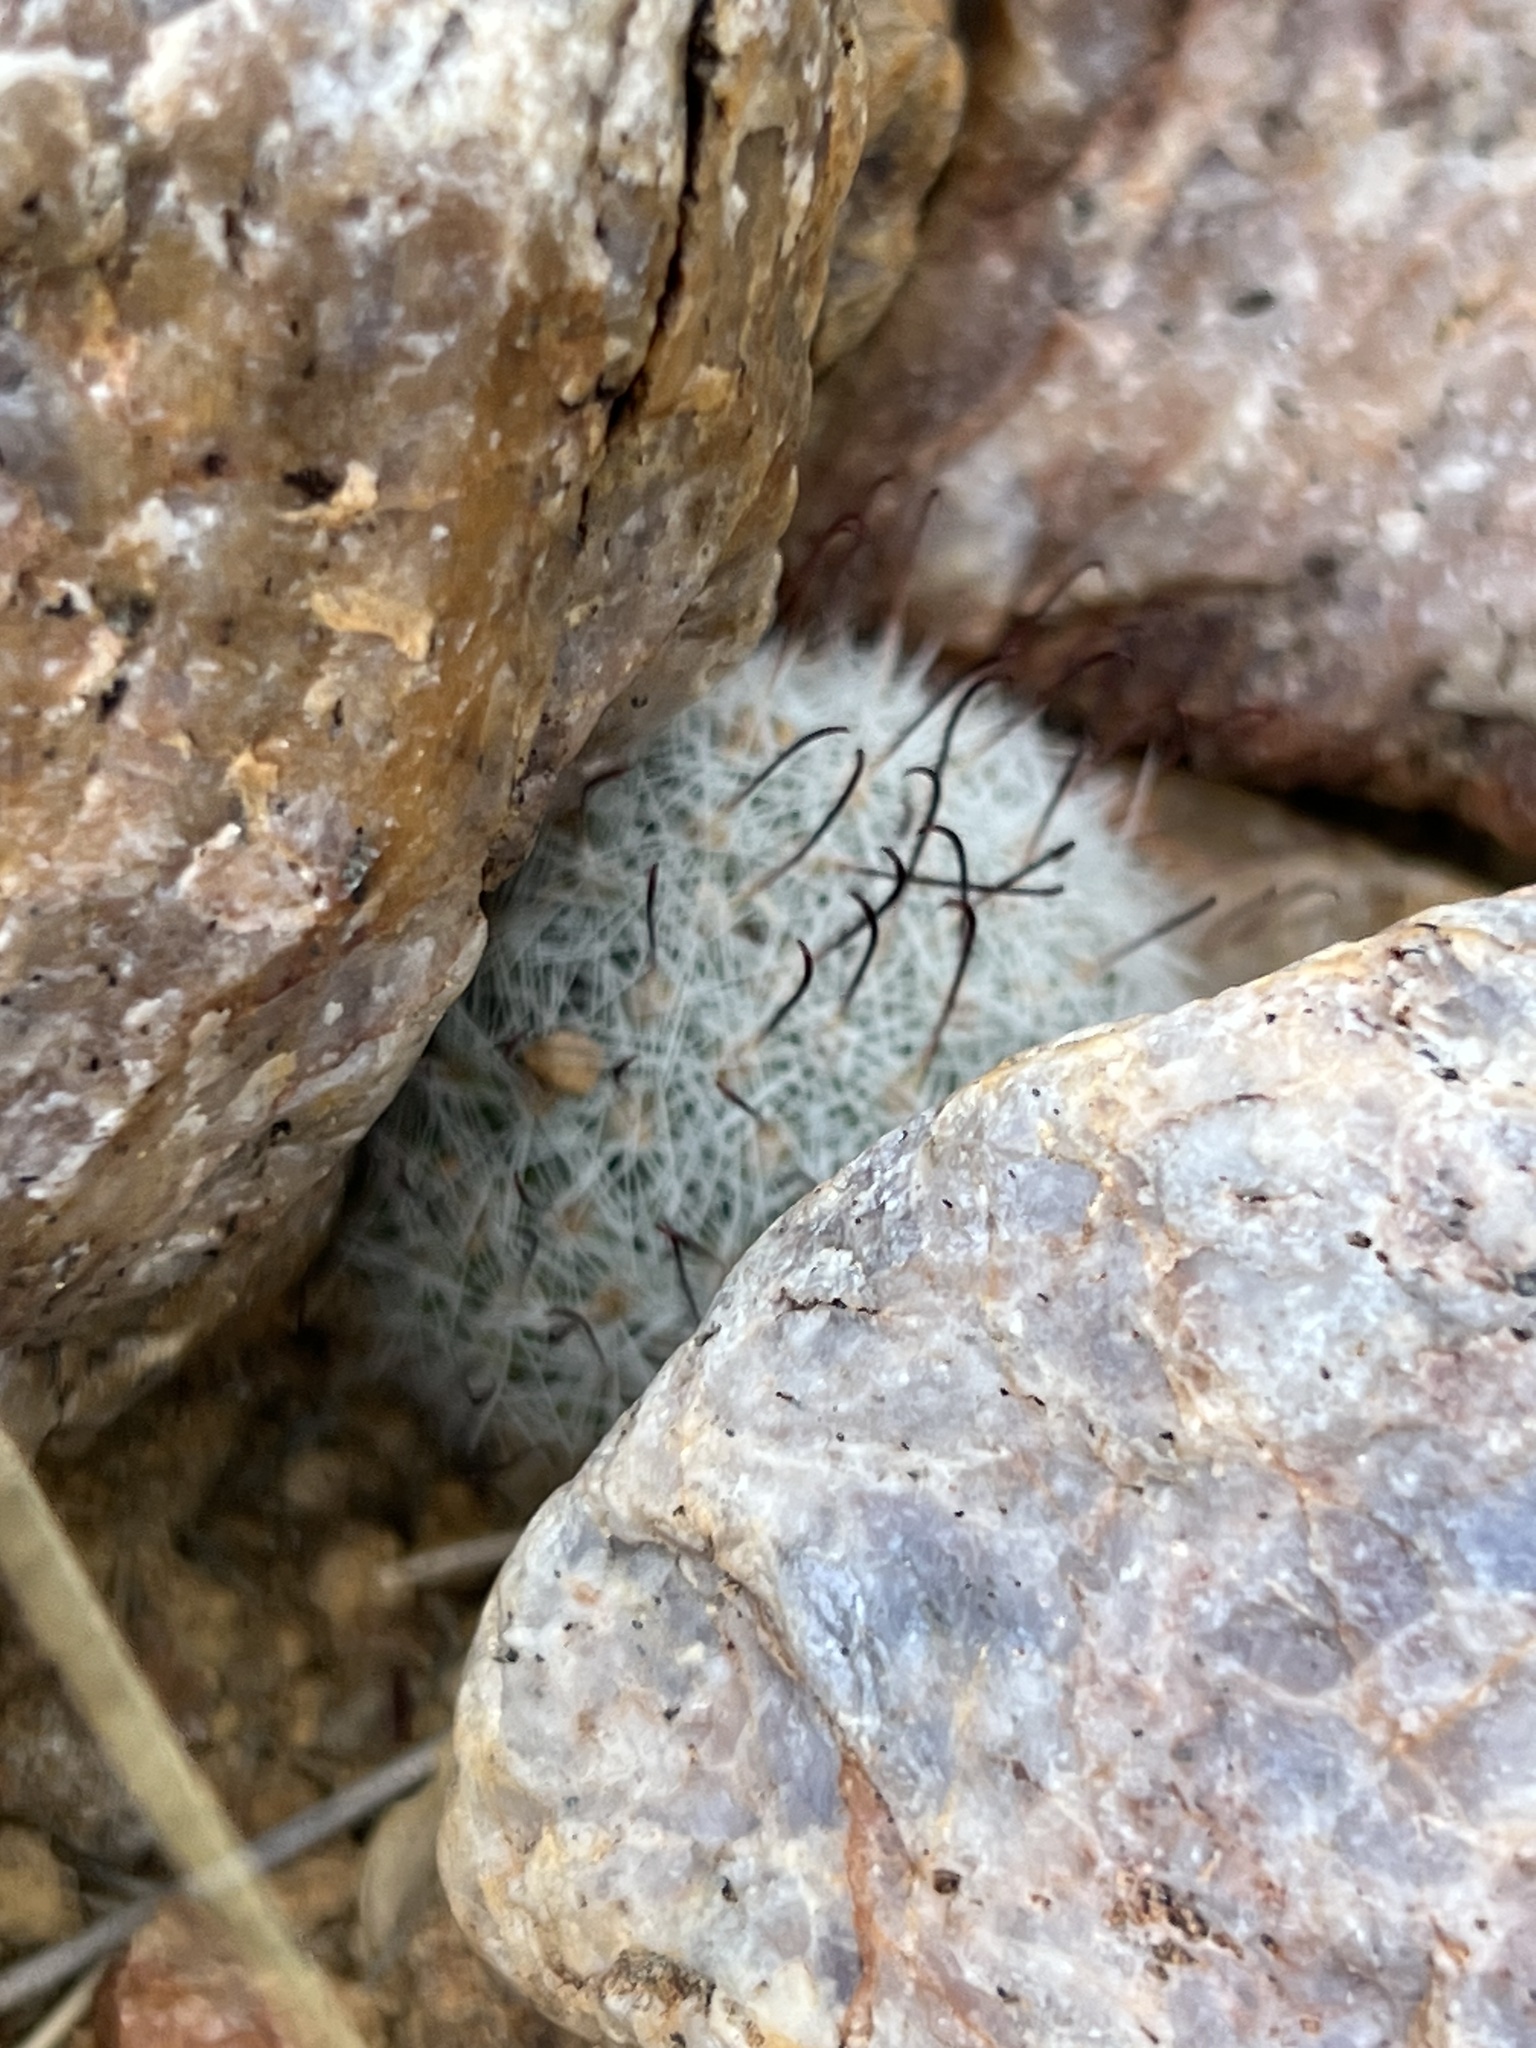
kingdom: Plantae
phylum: Tracheophyta
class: Magnoliopsida
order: Caryophyllales
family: Cactaceae
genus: Cochemiea
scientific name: Cochemiea grahamii
